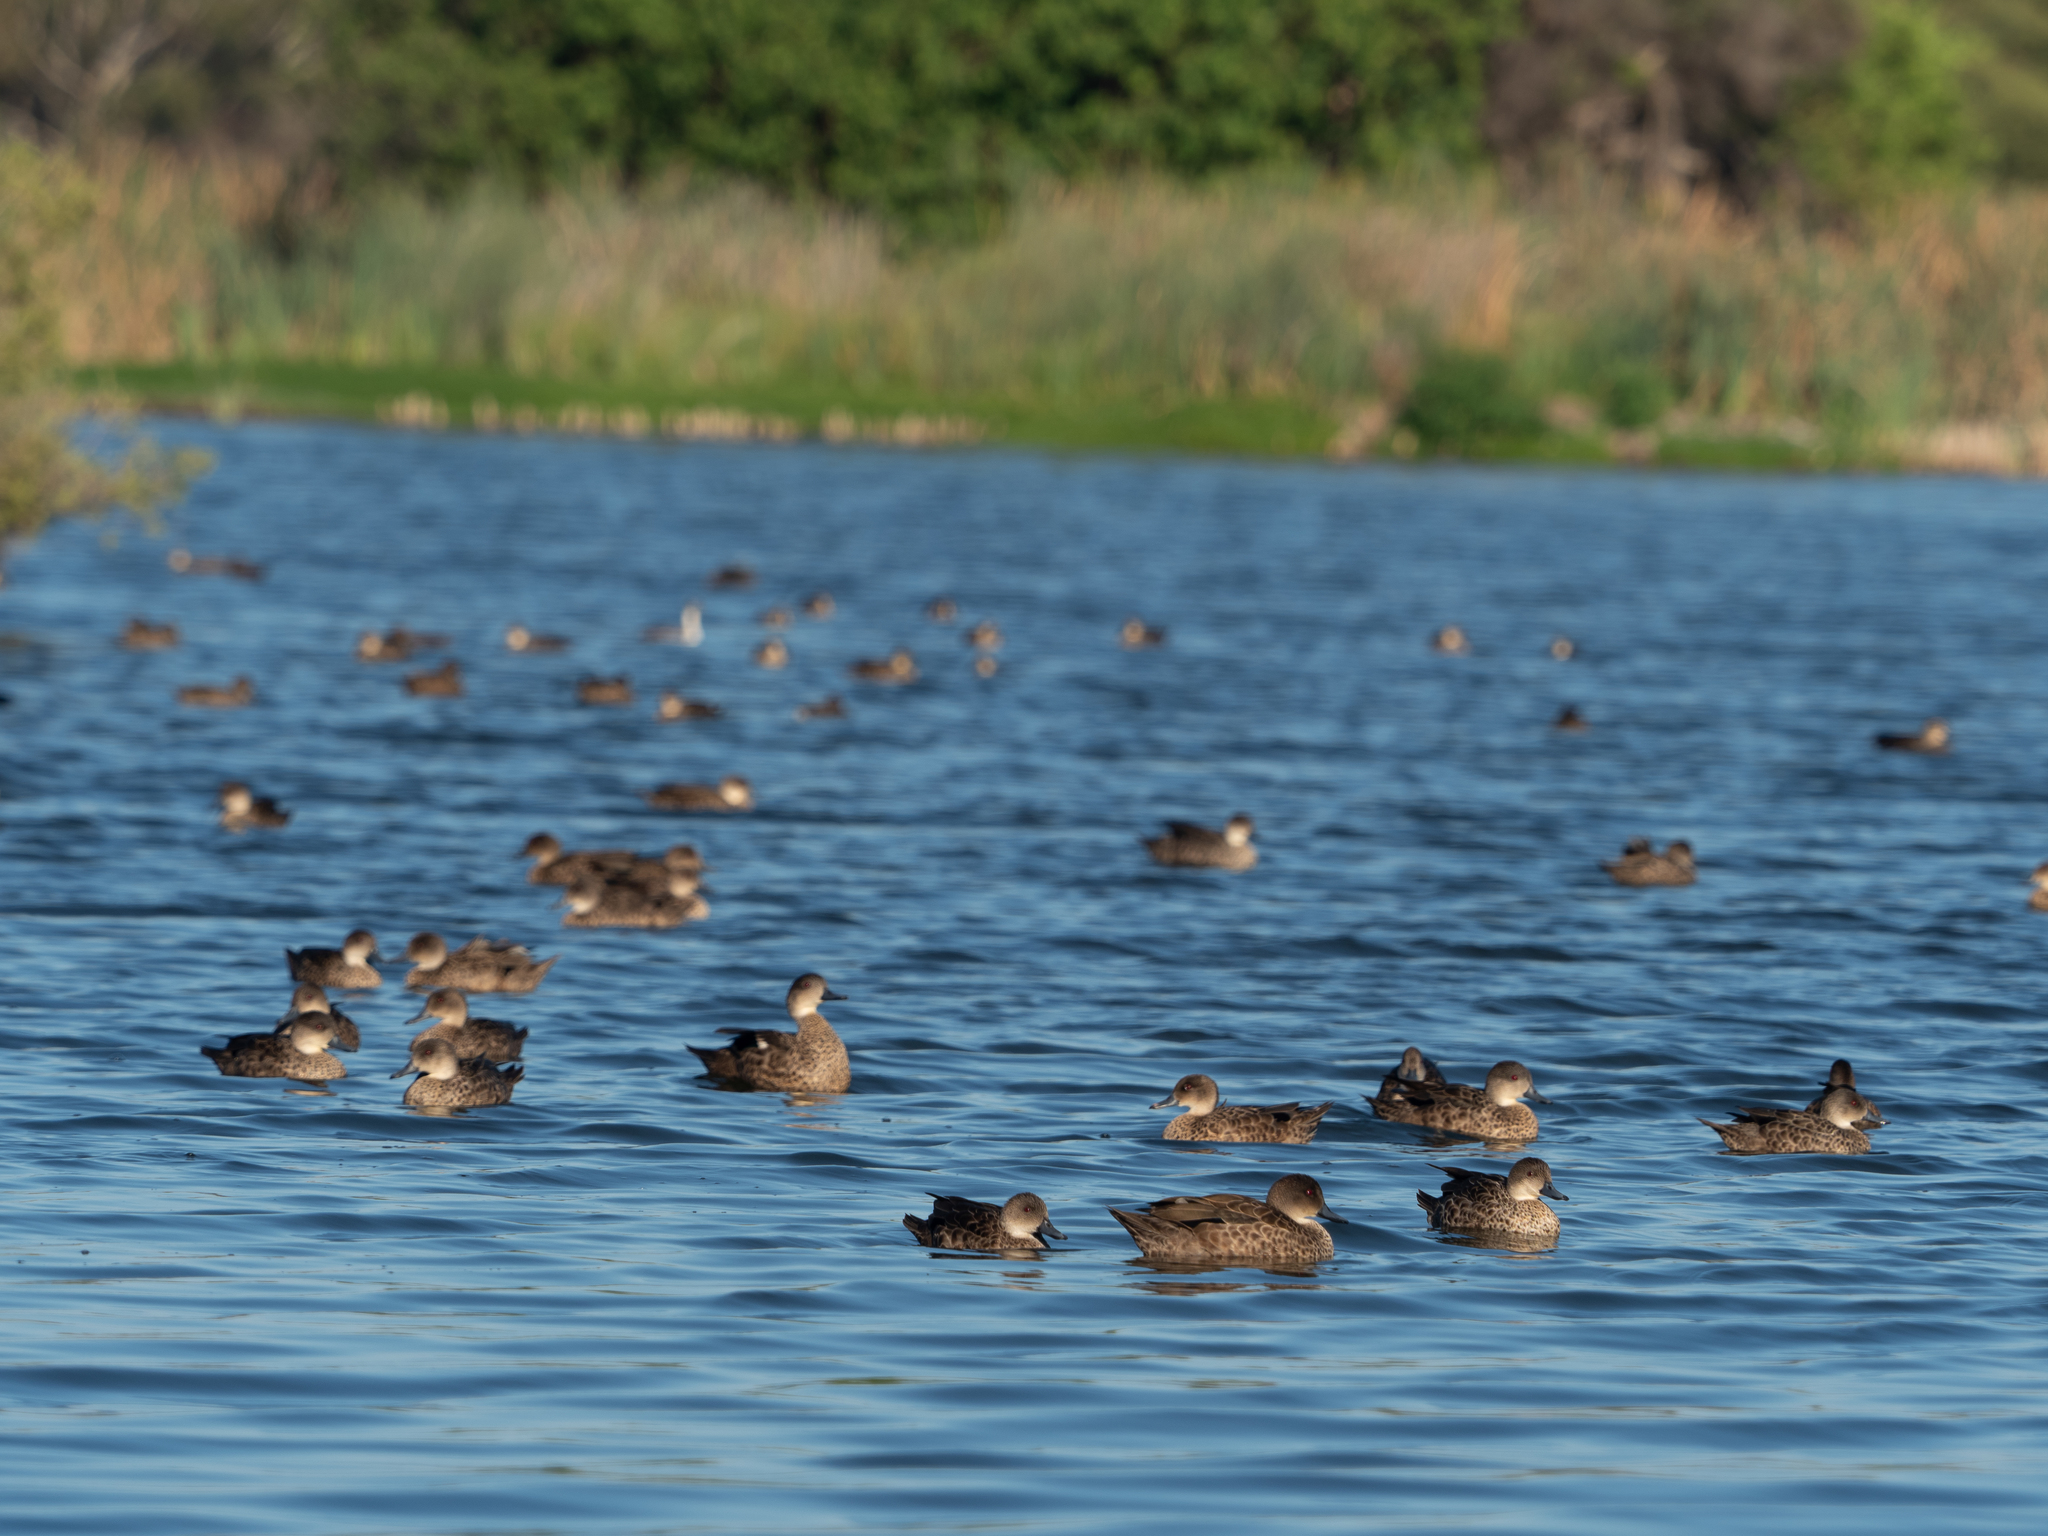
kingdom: Animalia
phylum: Chordata
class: Aves
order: Anseriformes
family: Anatidae
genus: Anas
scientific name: Anas gracilis
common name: Grey teal
